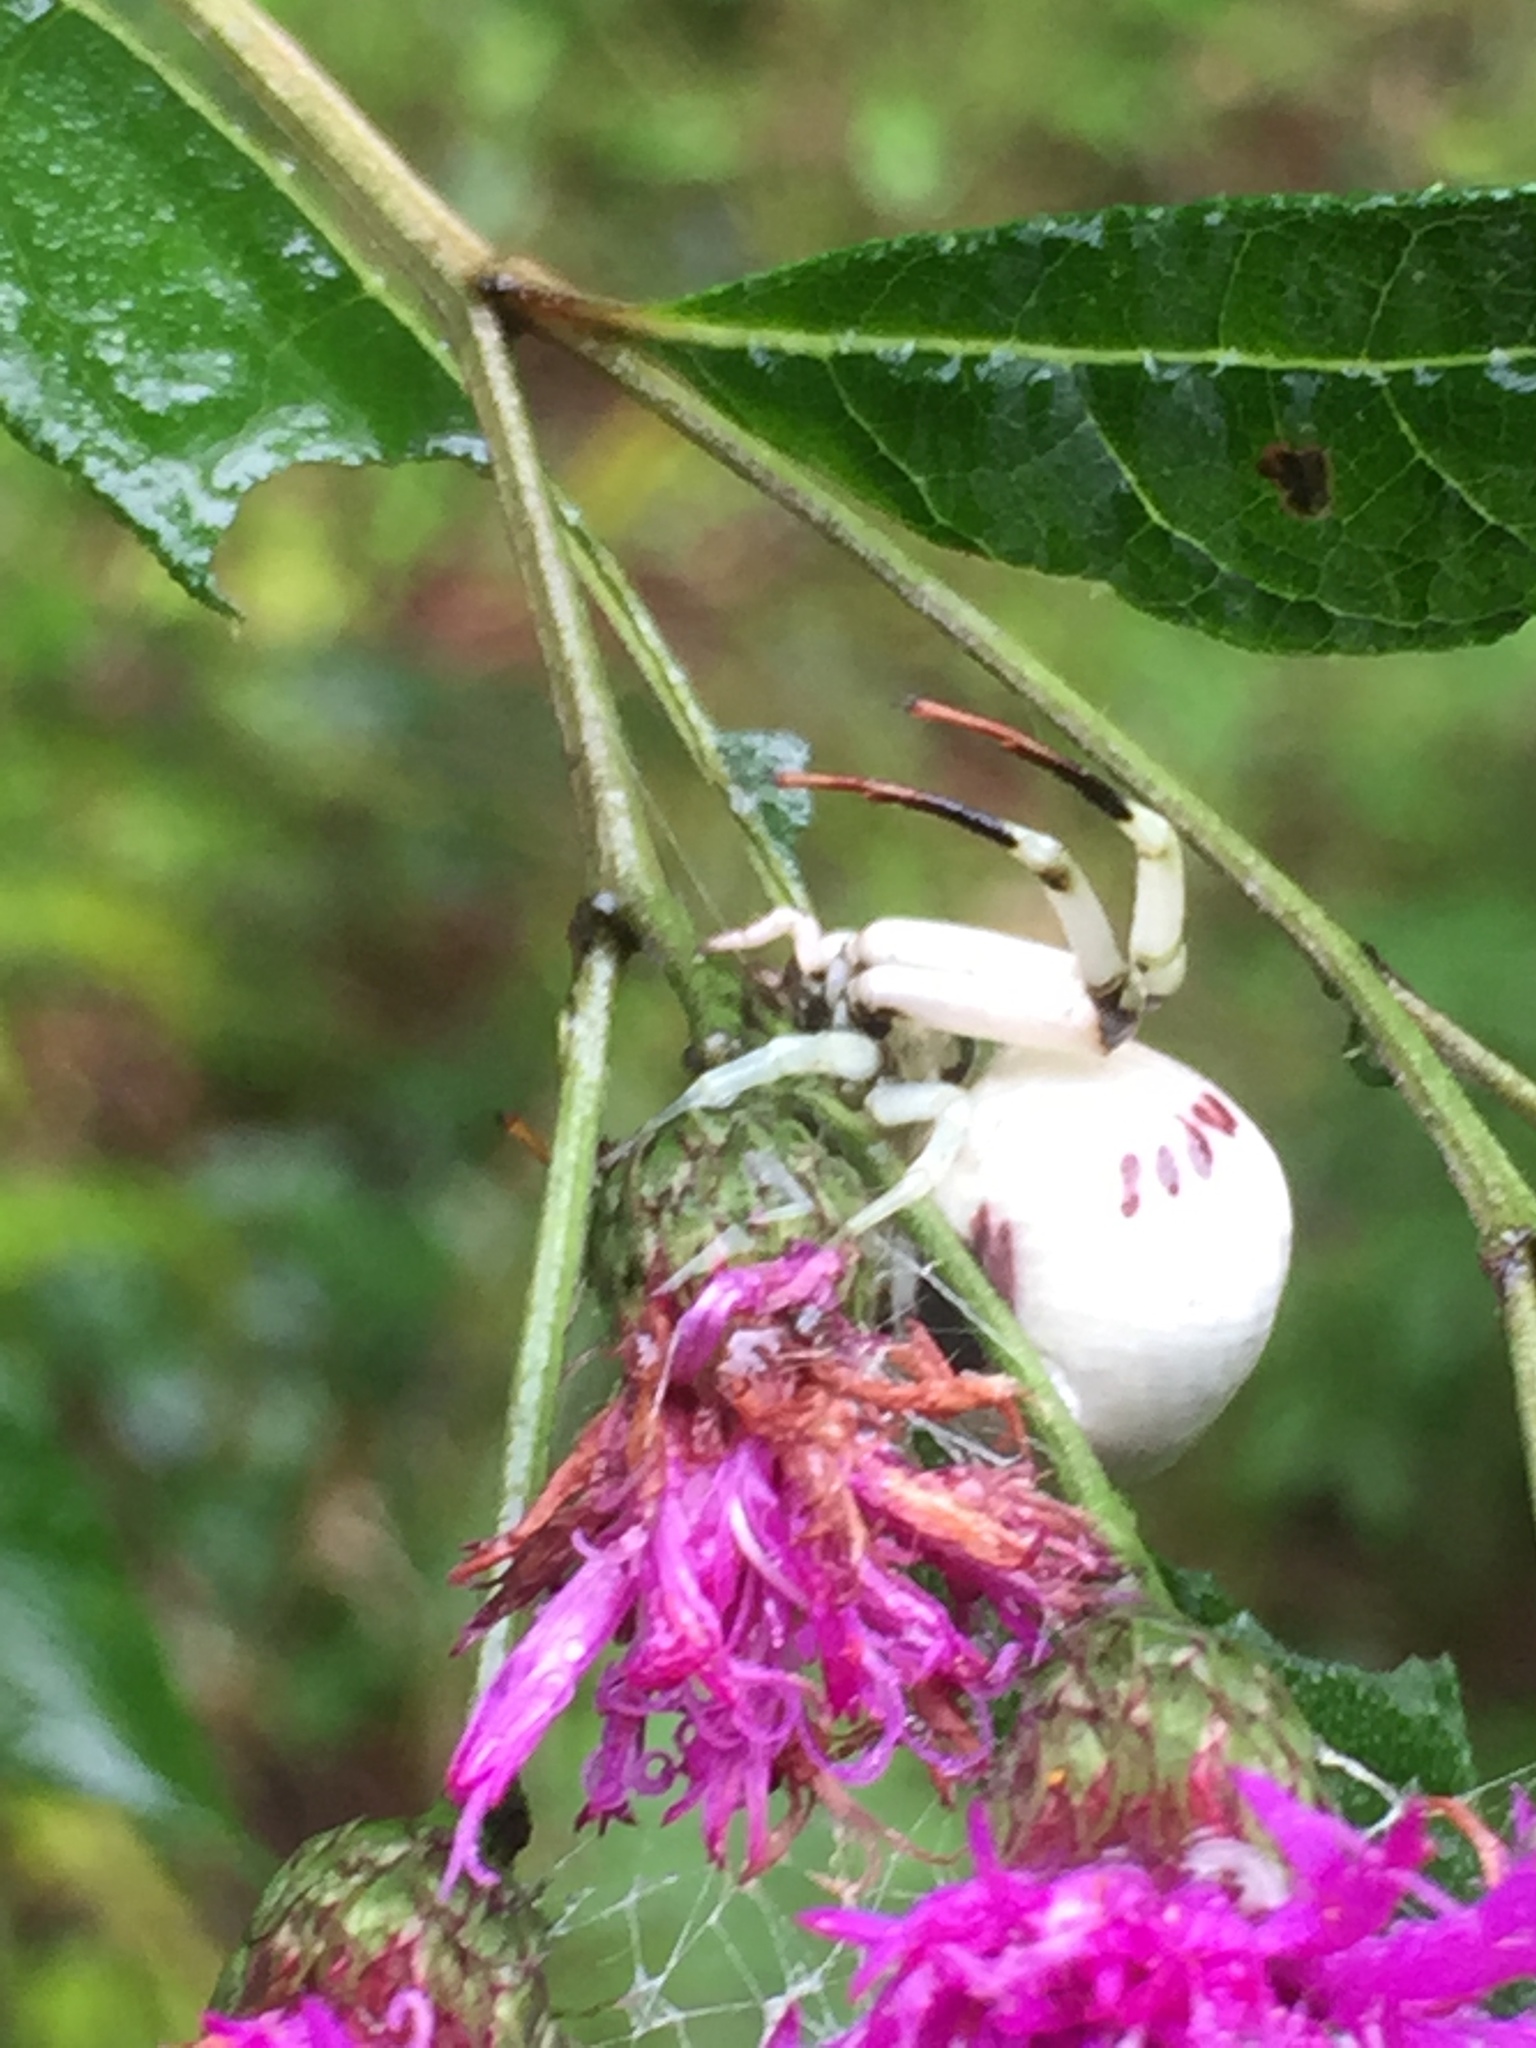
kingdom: Animalia
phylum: Arthropoda
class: Arachnida
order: Araneae
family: Thomisidae
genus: Misumenoides
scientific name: Misumenoides formosipes
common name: White-banded crab spider
